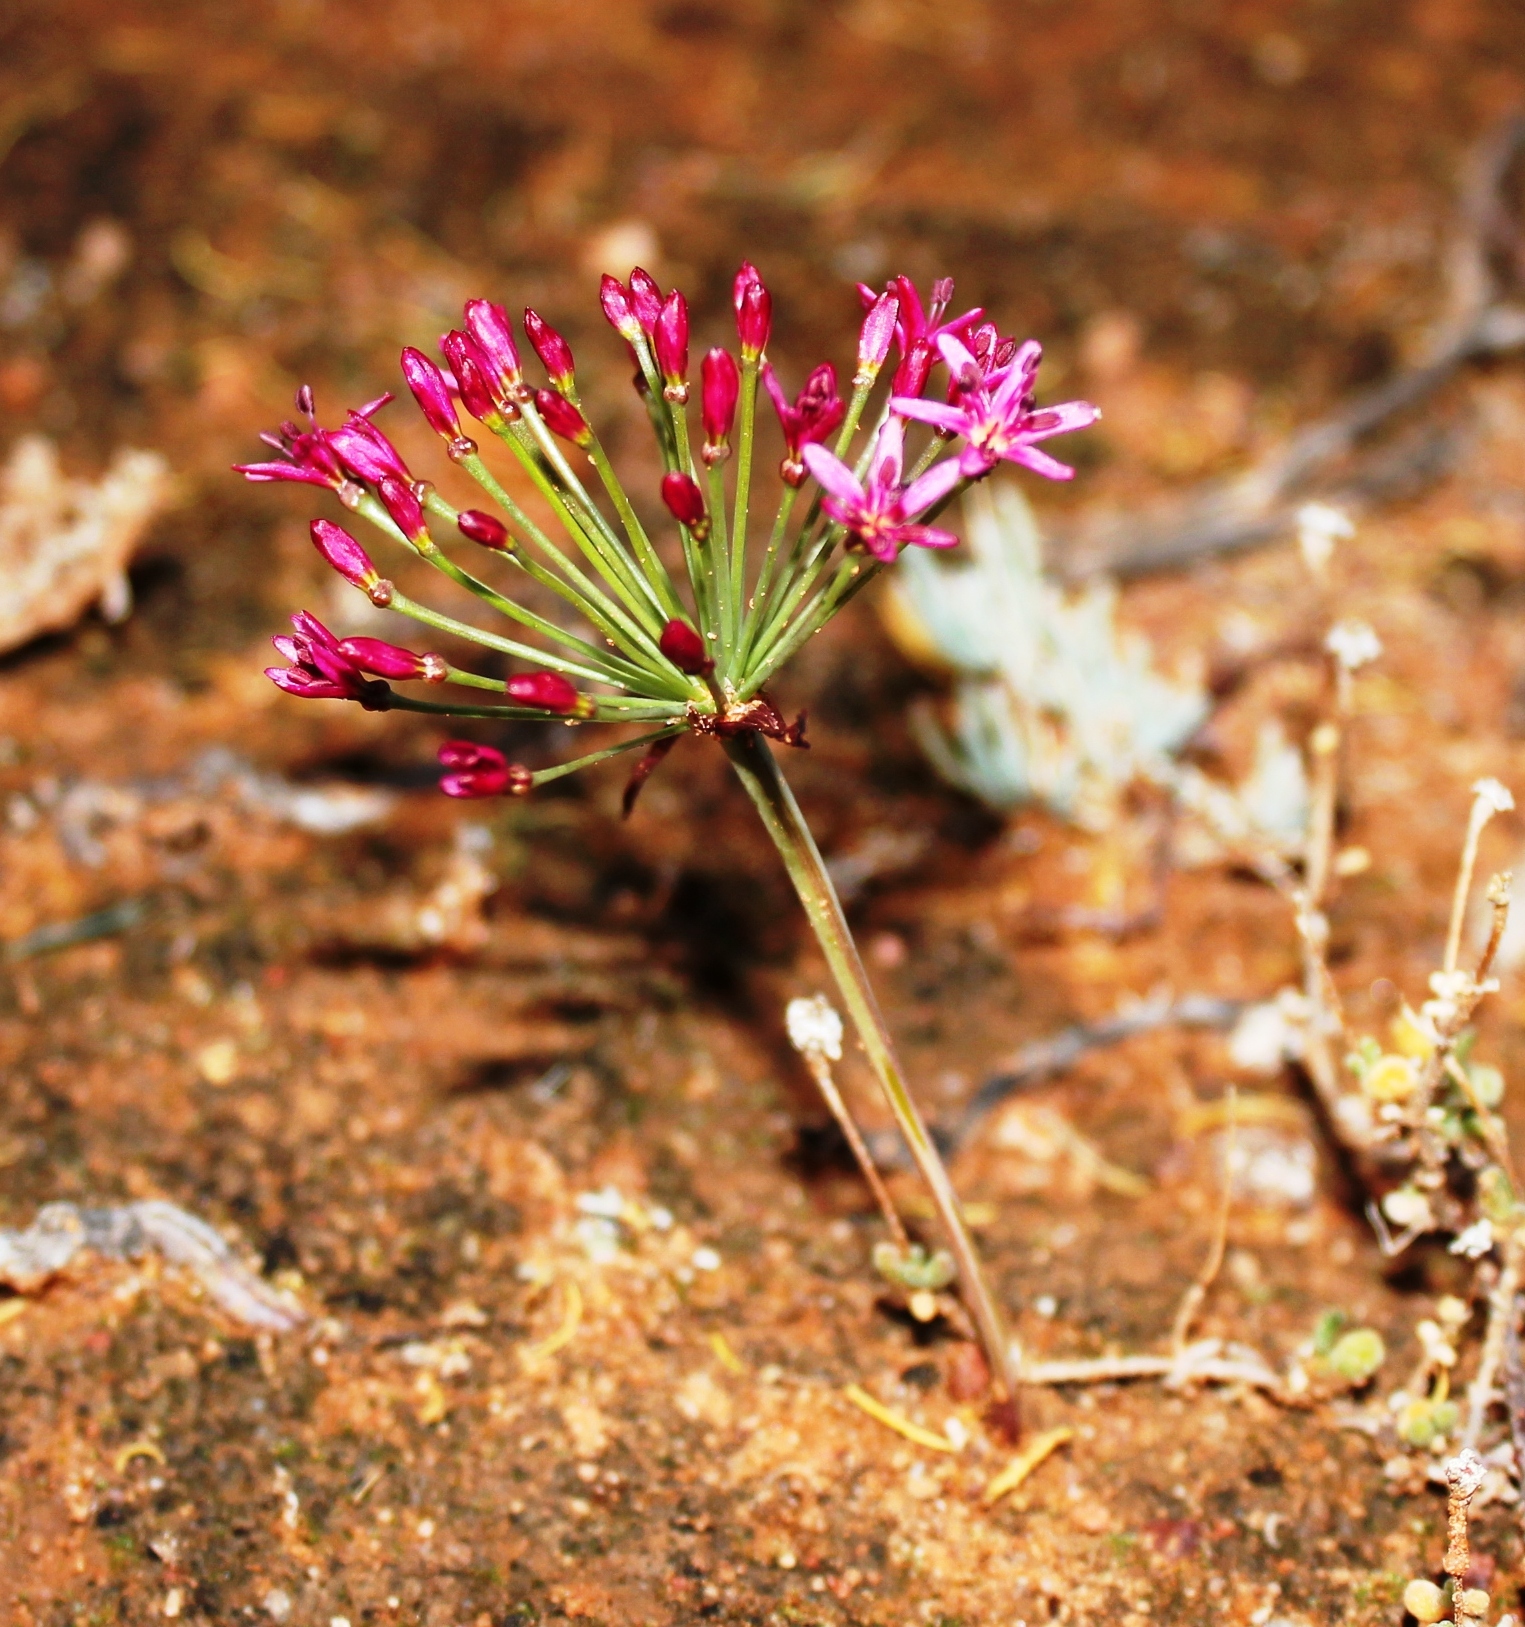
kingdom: Plantae
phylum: Tracheophyta
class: Liliopsida
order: Asparagales
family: Amaryllidaceae
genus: Hessea
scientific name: Hessea stellaris
